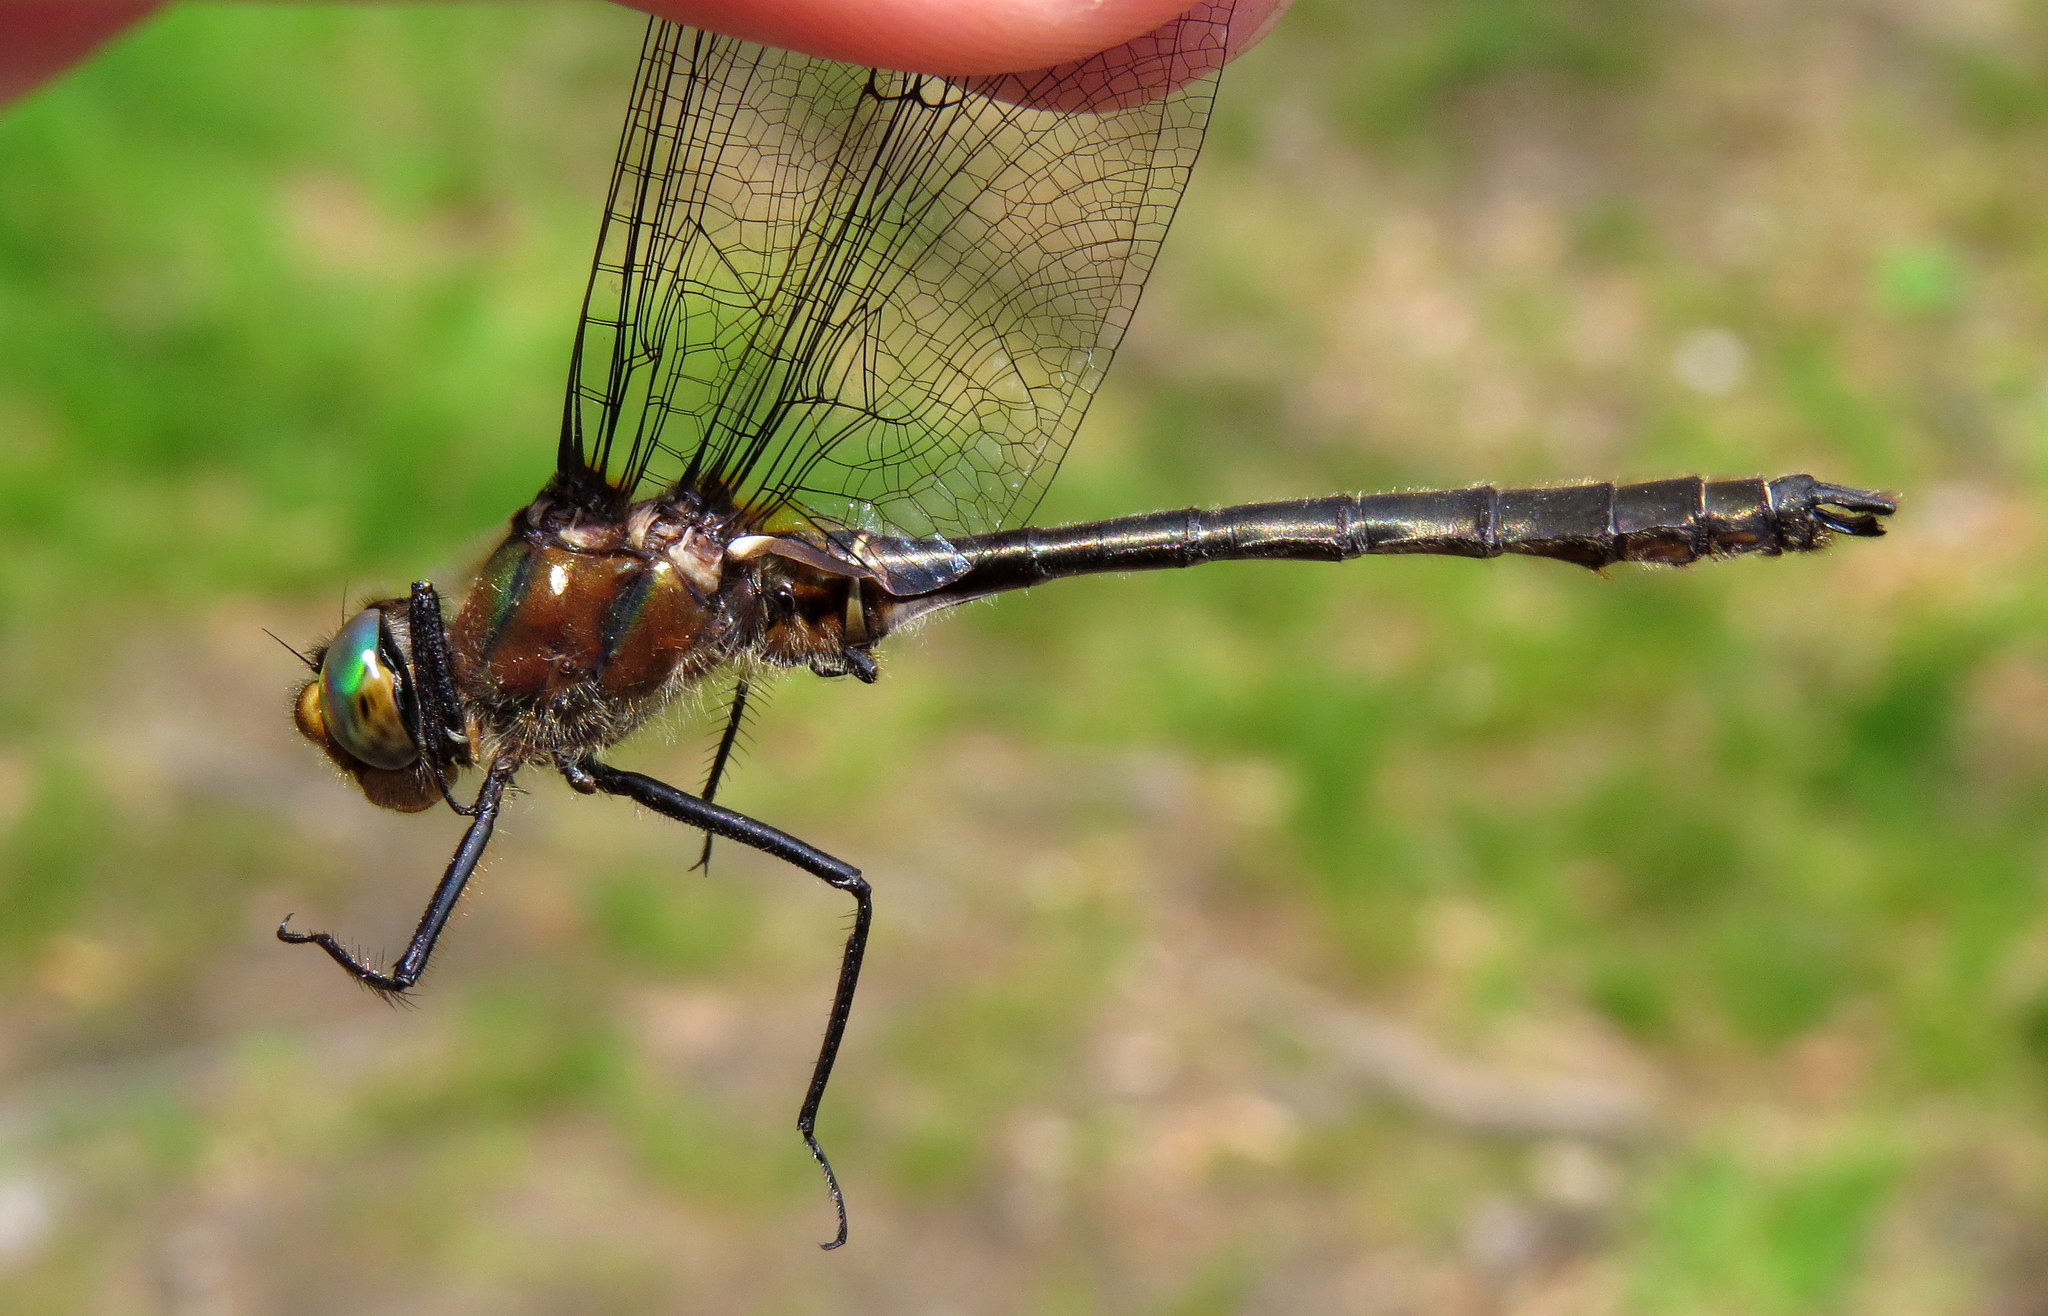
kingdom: Animalia
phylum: Arthropoda
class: Insecta
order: Odonata
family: Corduliidae
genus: Cordulia
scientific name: Cordulia shurtleffii
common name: American emerald
